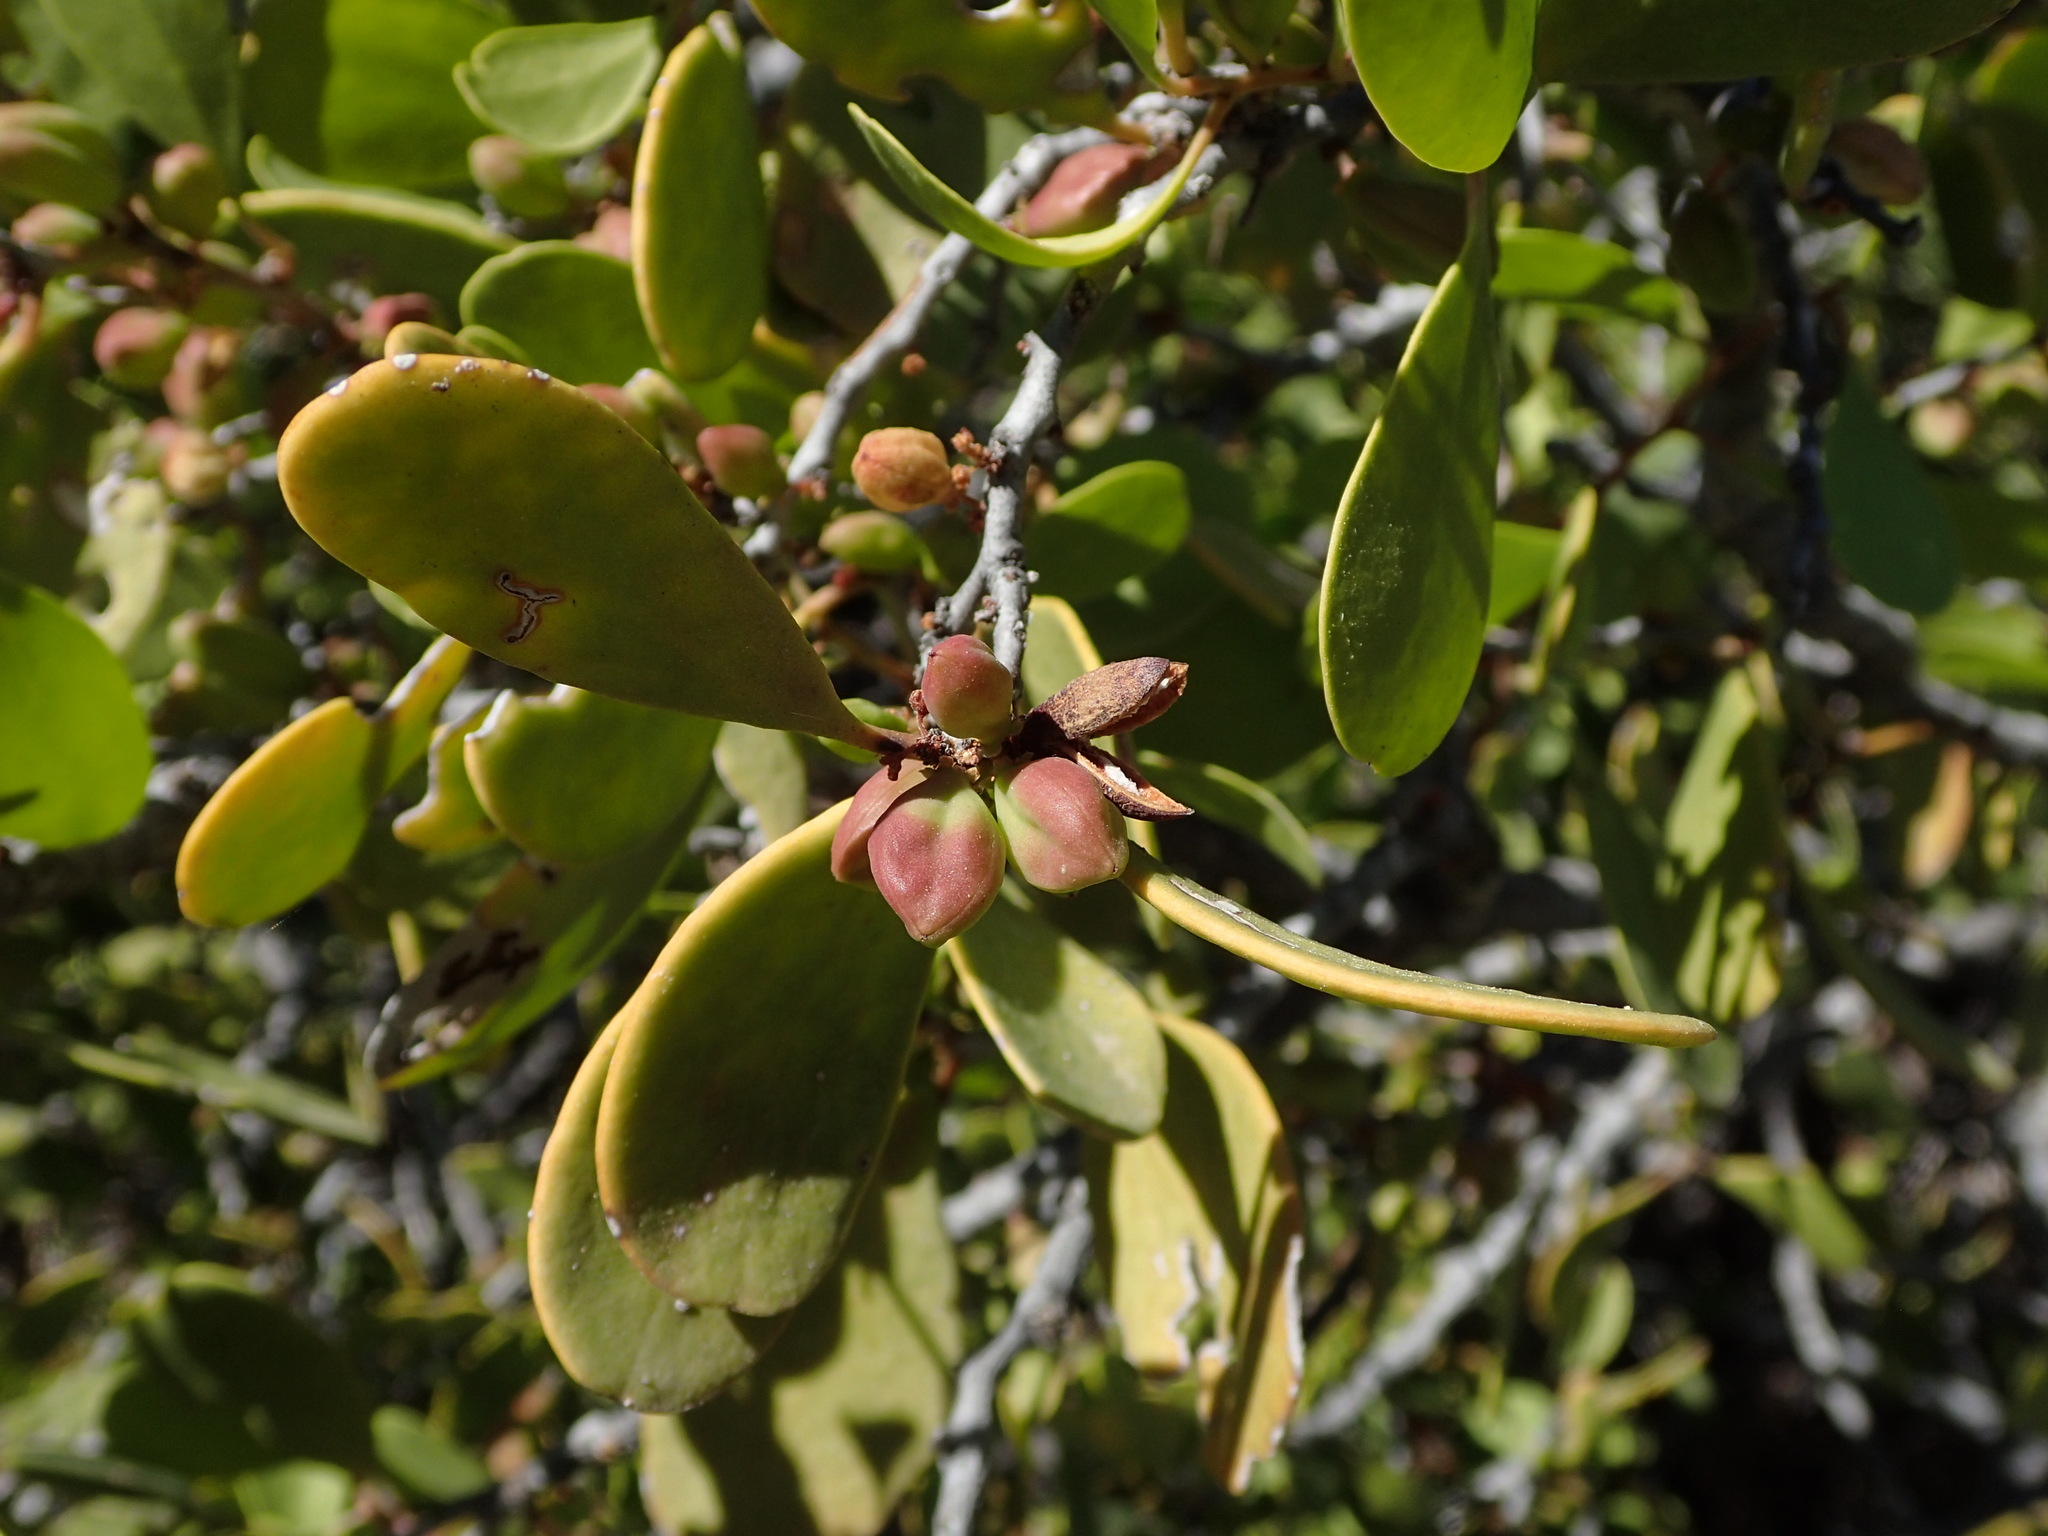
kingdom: Plantae
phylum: Tracheophyta
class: Magnoliopsida
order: Celastrales
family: Celastraceae
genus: Tricerma
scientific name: Tricerma phyllanthoides
